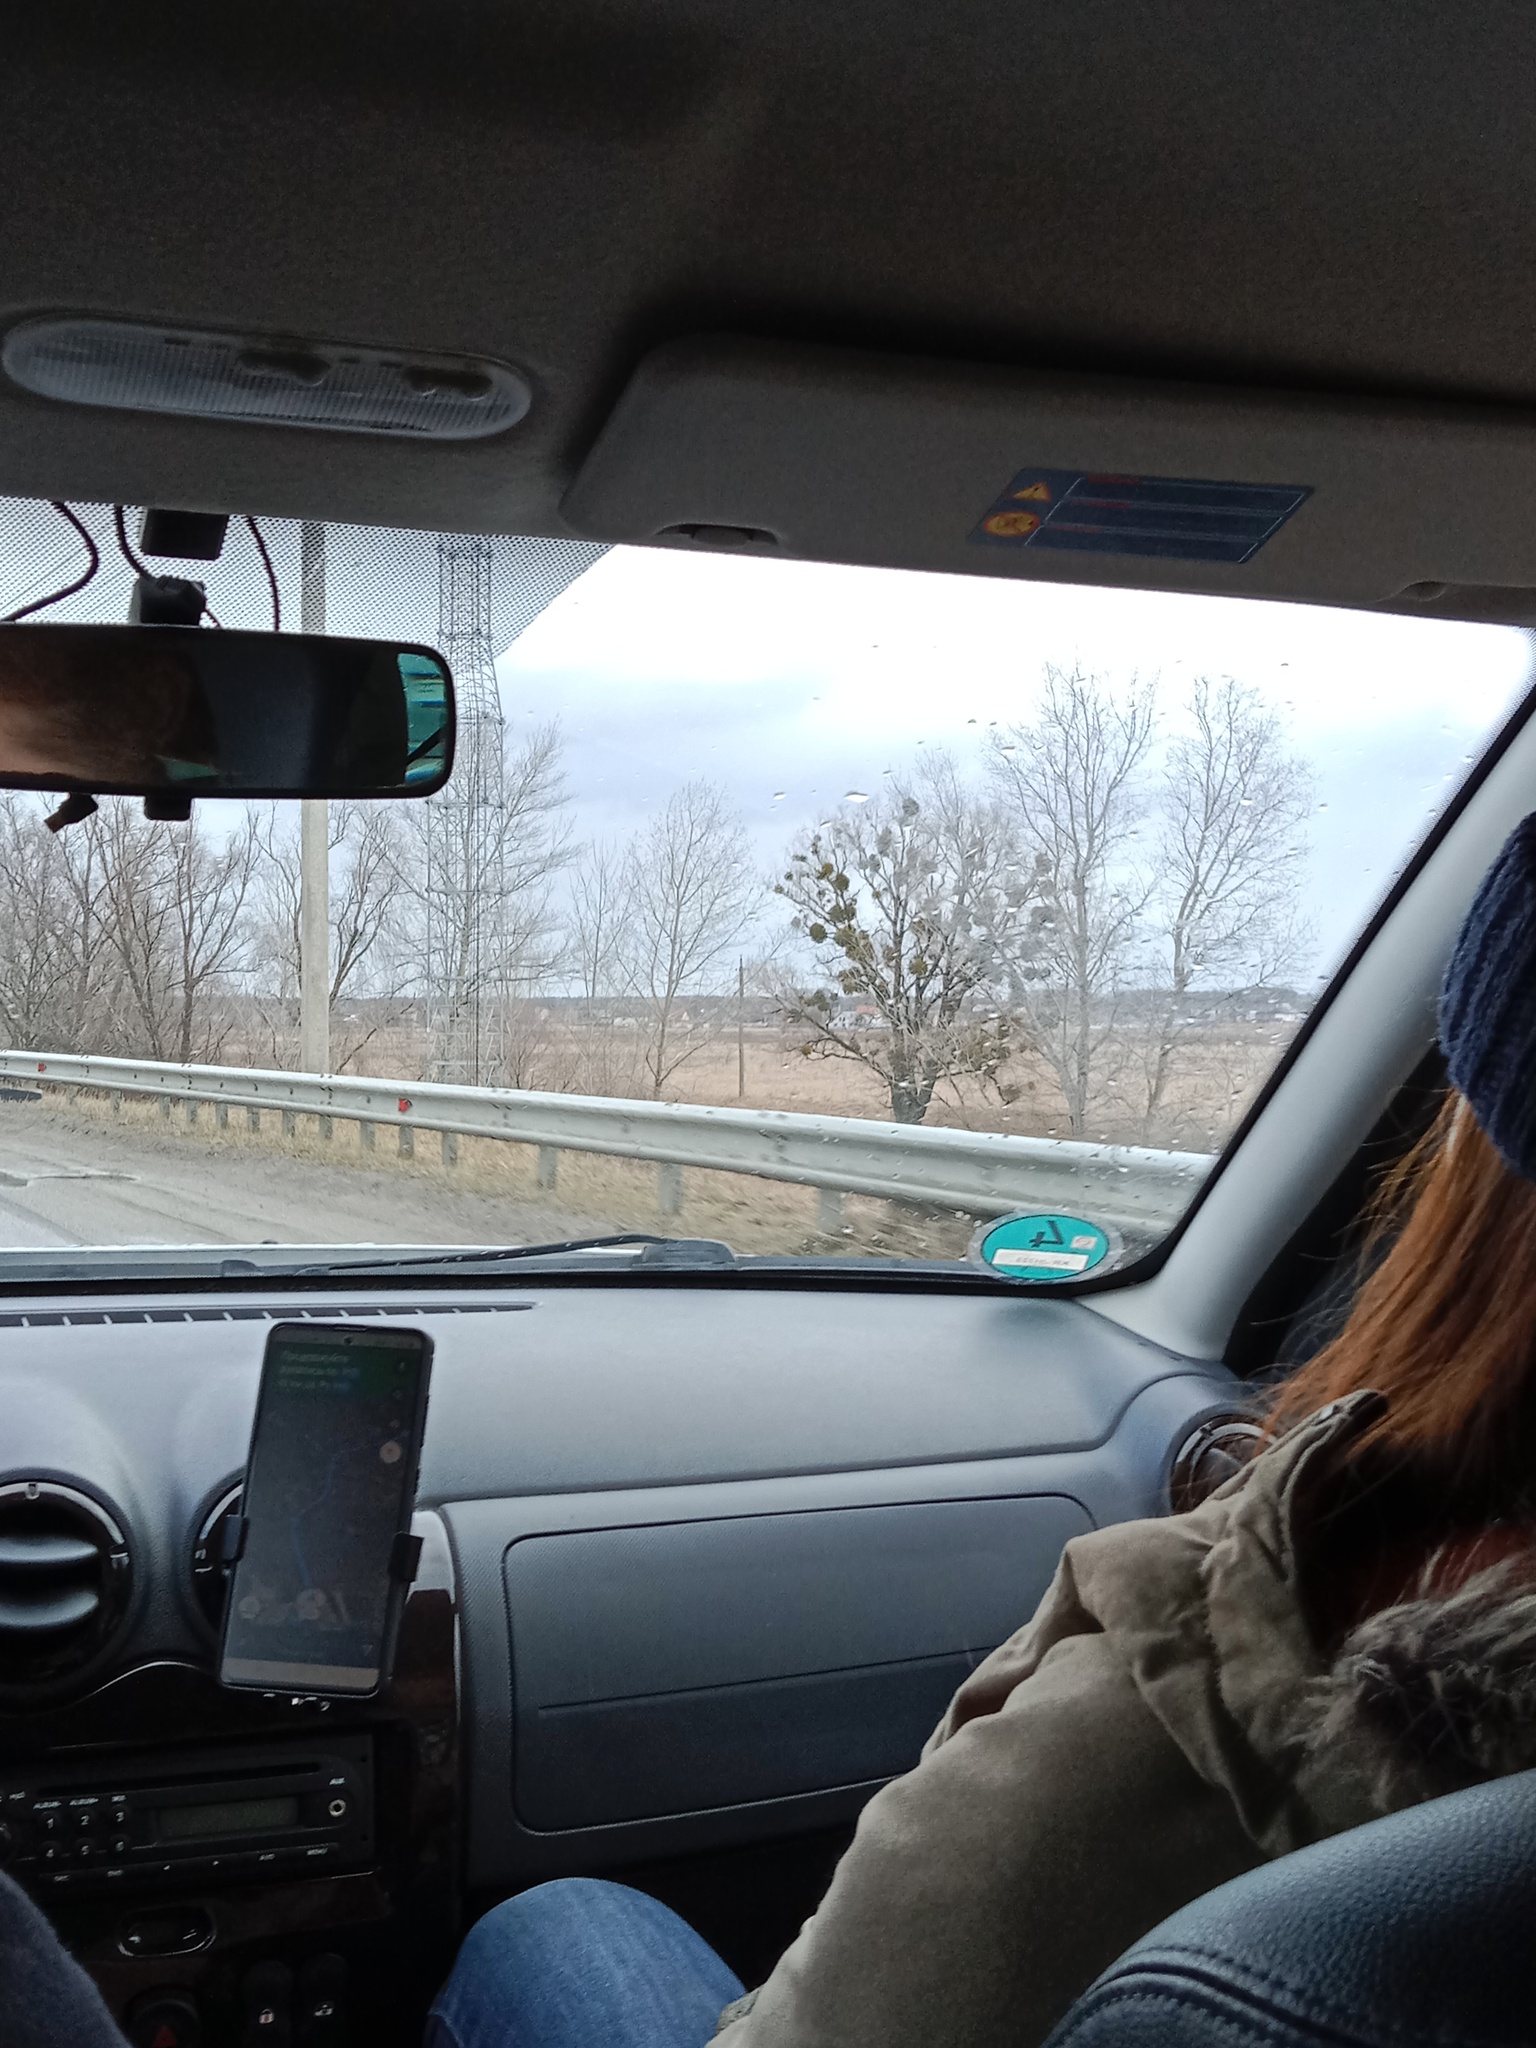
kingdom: Plantae
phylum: Tracheophyta
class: Magnoliopsida
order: Santalales
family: Viscaceae
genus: Viscum
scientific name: Viscum album
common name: Mistletoe
